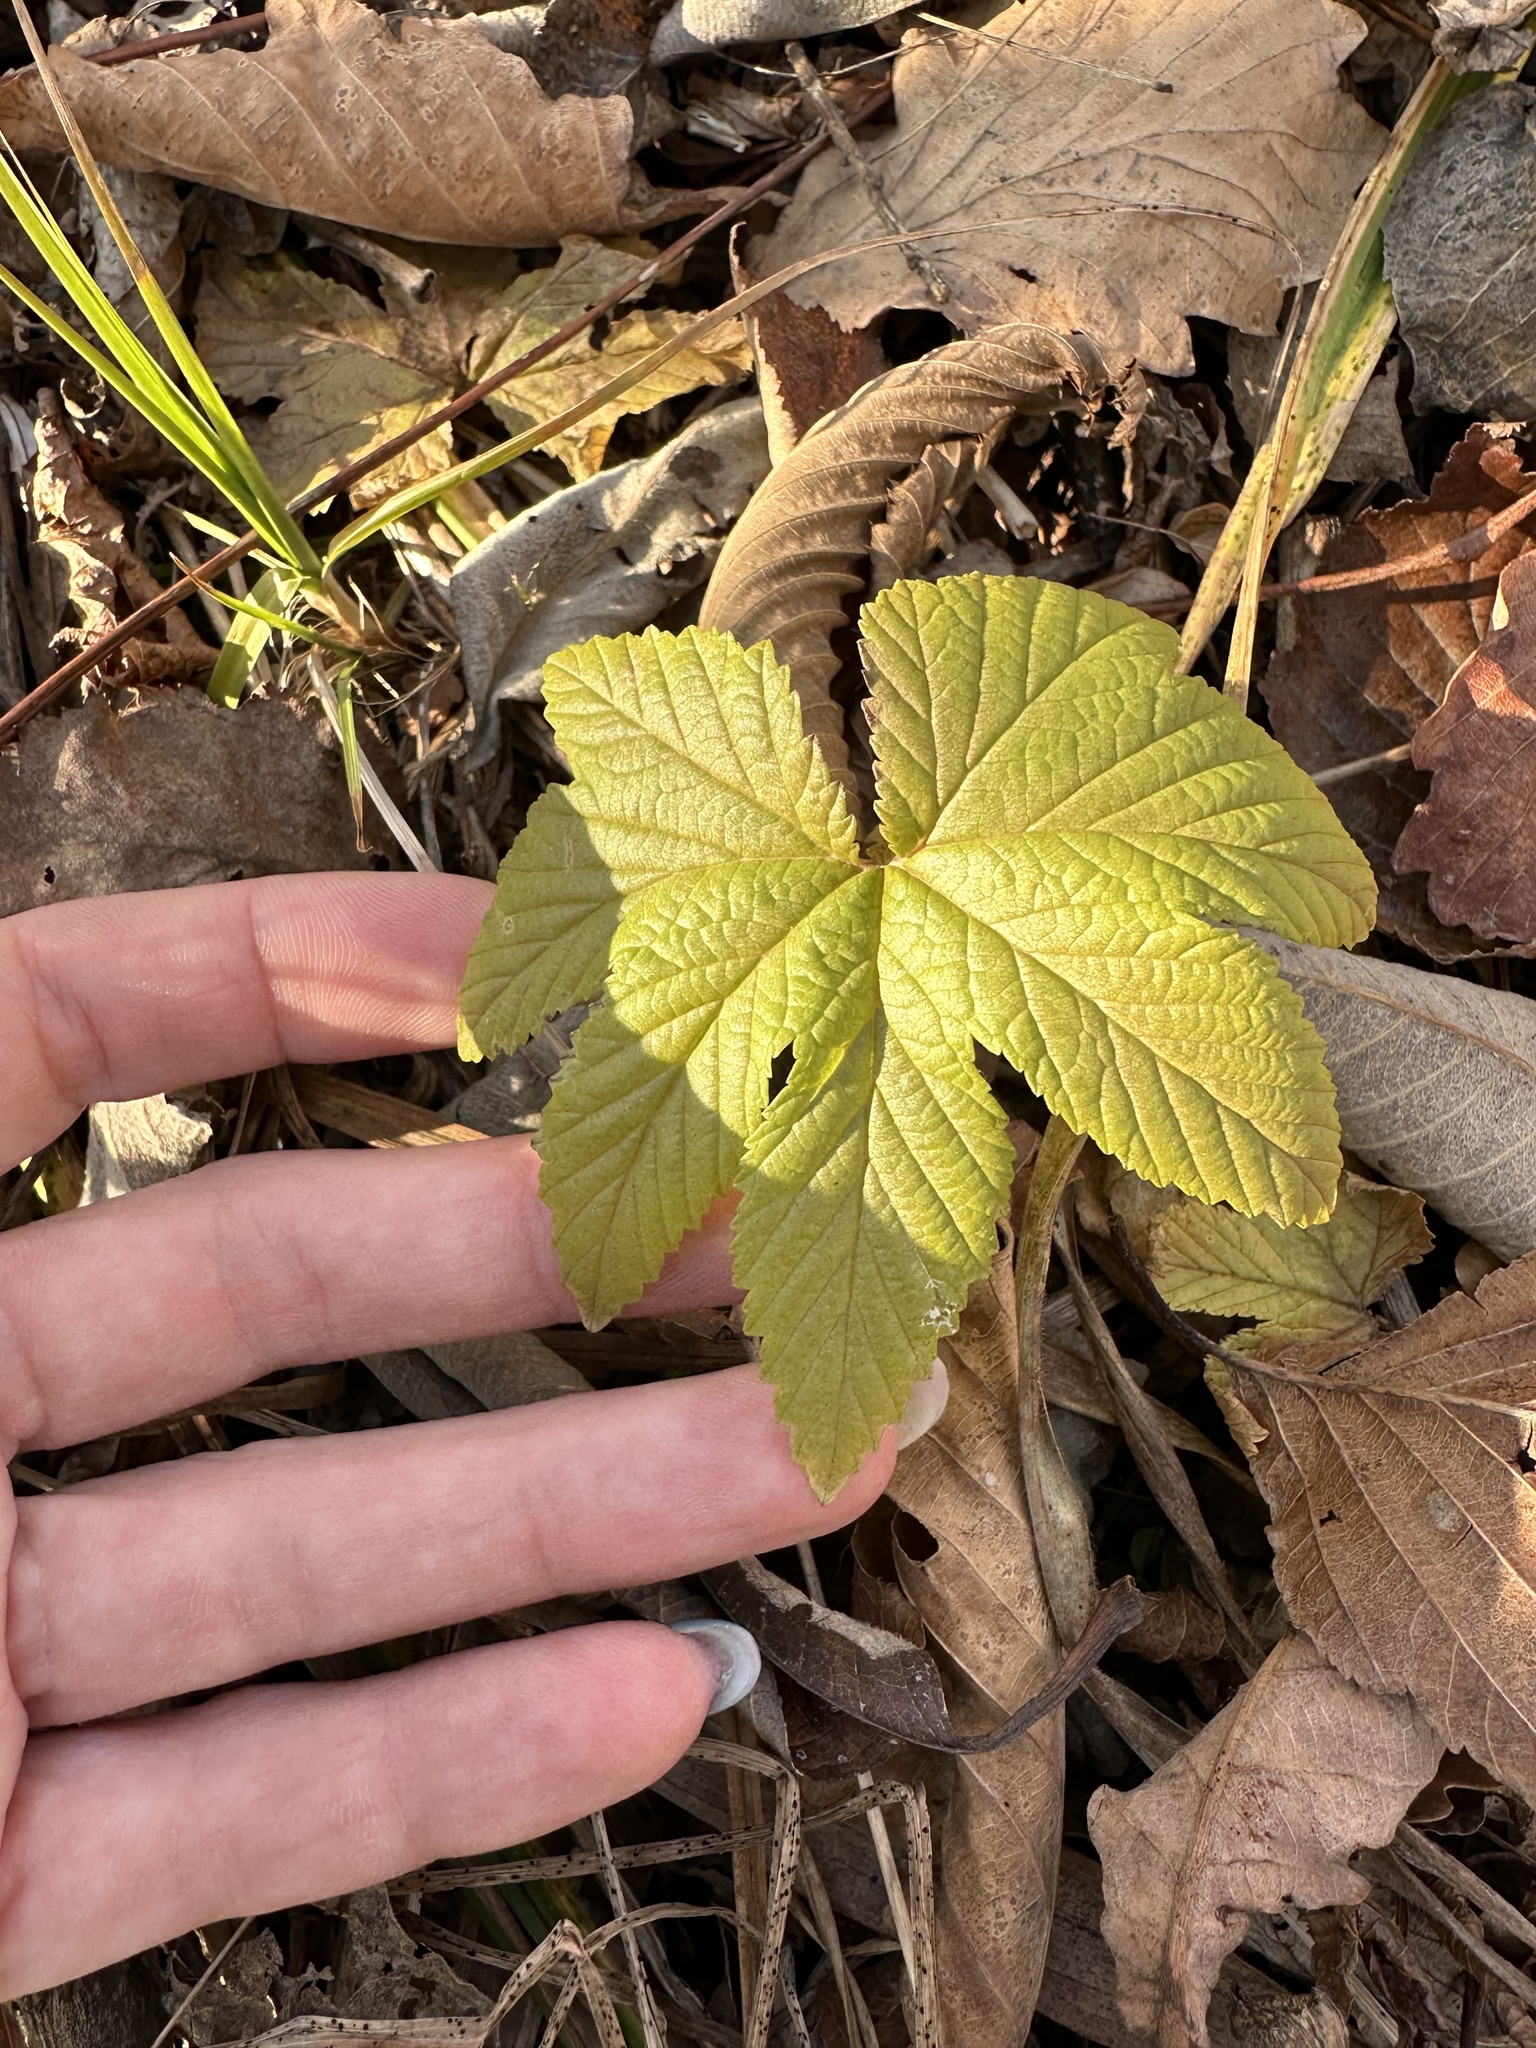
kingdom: Plantae
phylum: Tracheophyta
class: Magnoliopsida
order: Rosales
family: Rosaceae
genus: Filipendula
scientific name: Filipendula digitata
